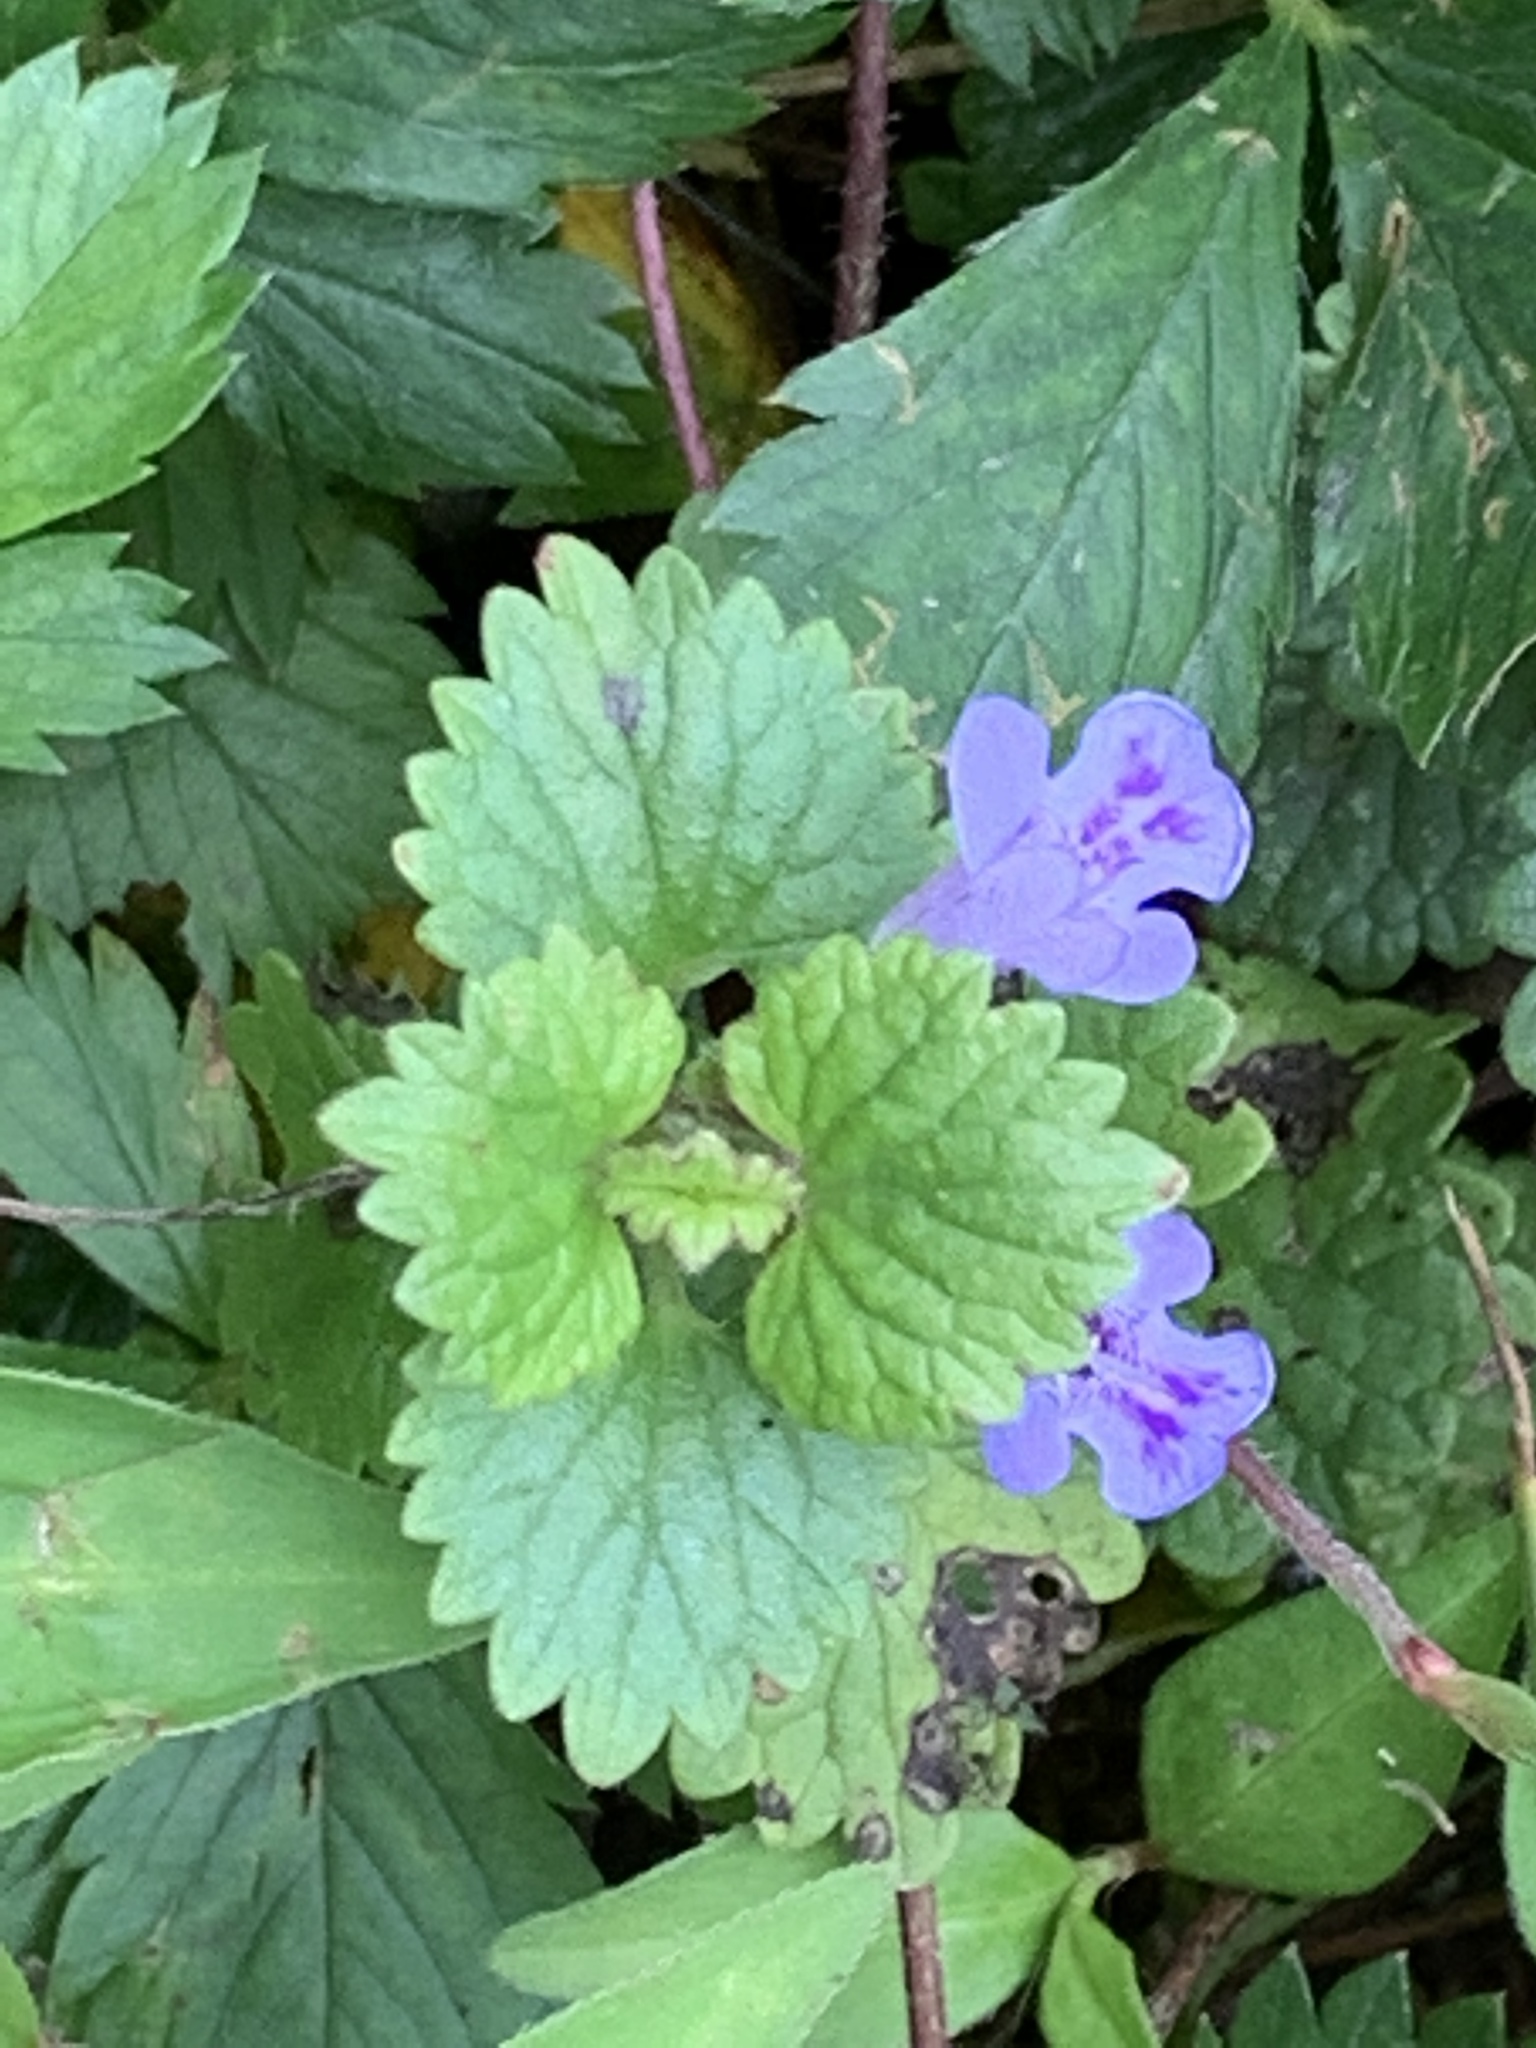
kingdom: Plantae
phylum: Tracheophyta
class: Magnoliopsida
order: Lamiales
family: Lamiaceae
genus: Glechoma
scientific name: Glechoma hederacea
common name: Ground ivy
